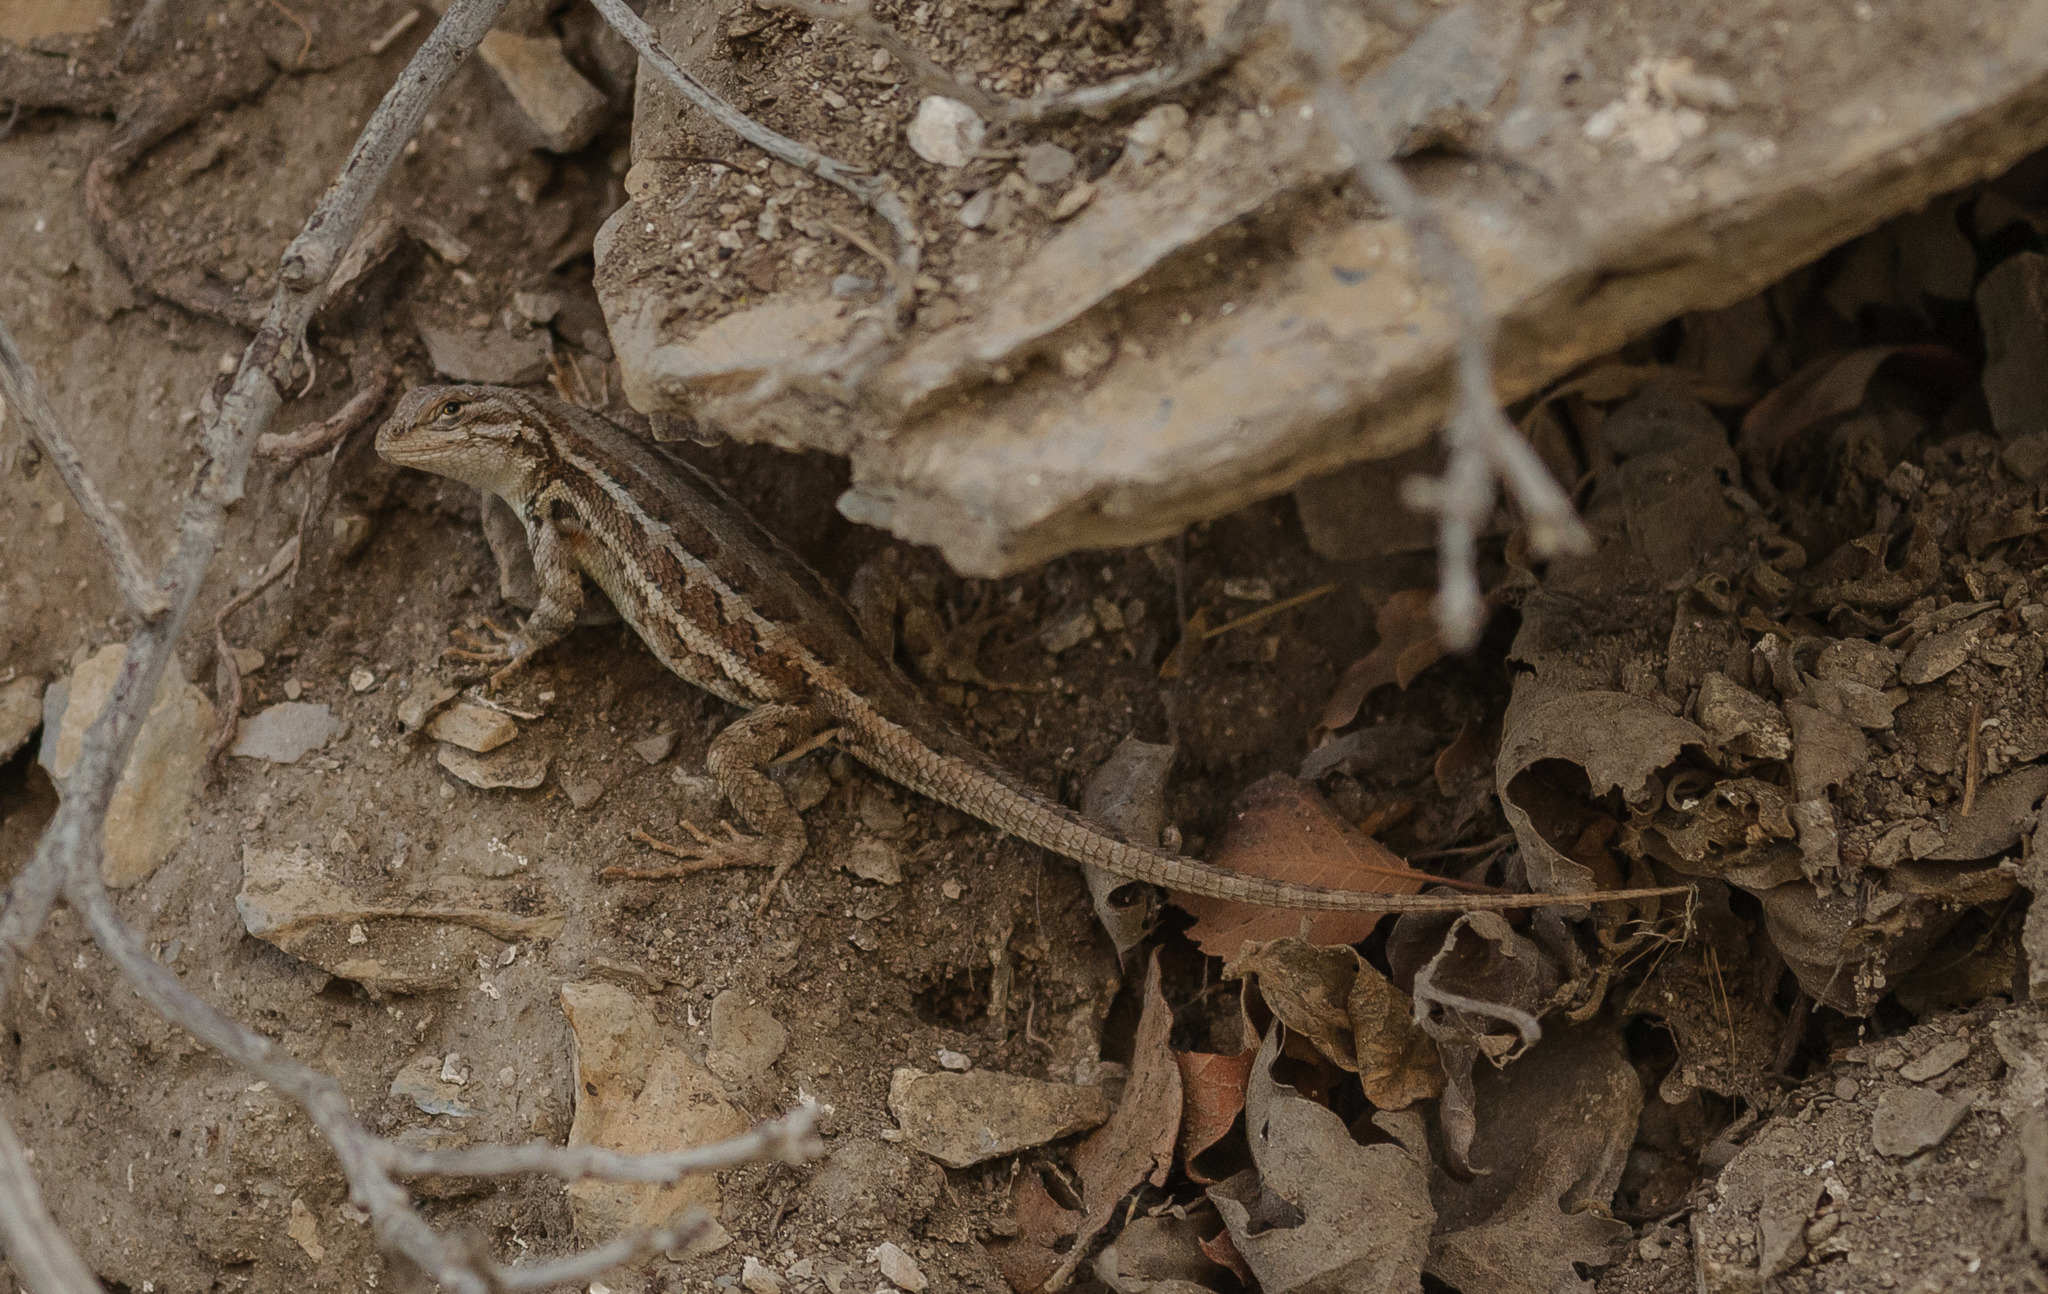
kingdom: Animalia
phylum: Chordata
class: Squamata
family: Phrynosomatidae
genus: Sceloporus
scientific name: Sceloporus graciosus
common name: Sagebrush lizard
